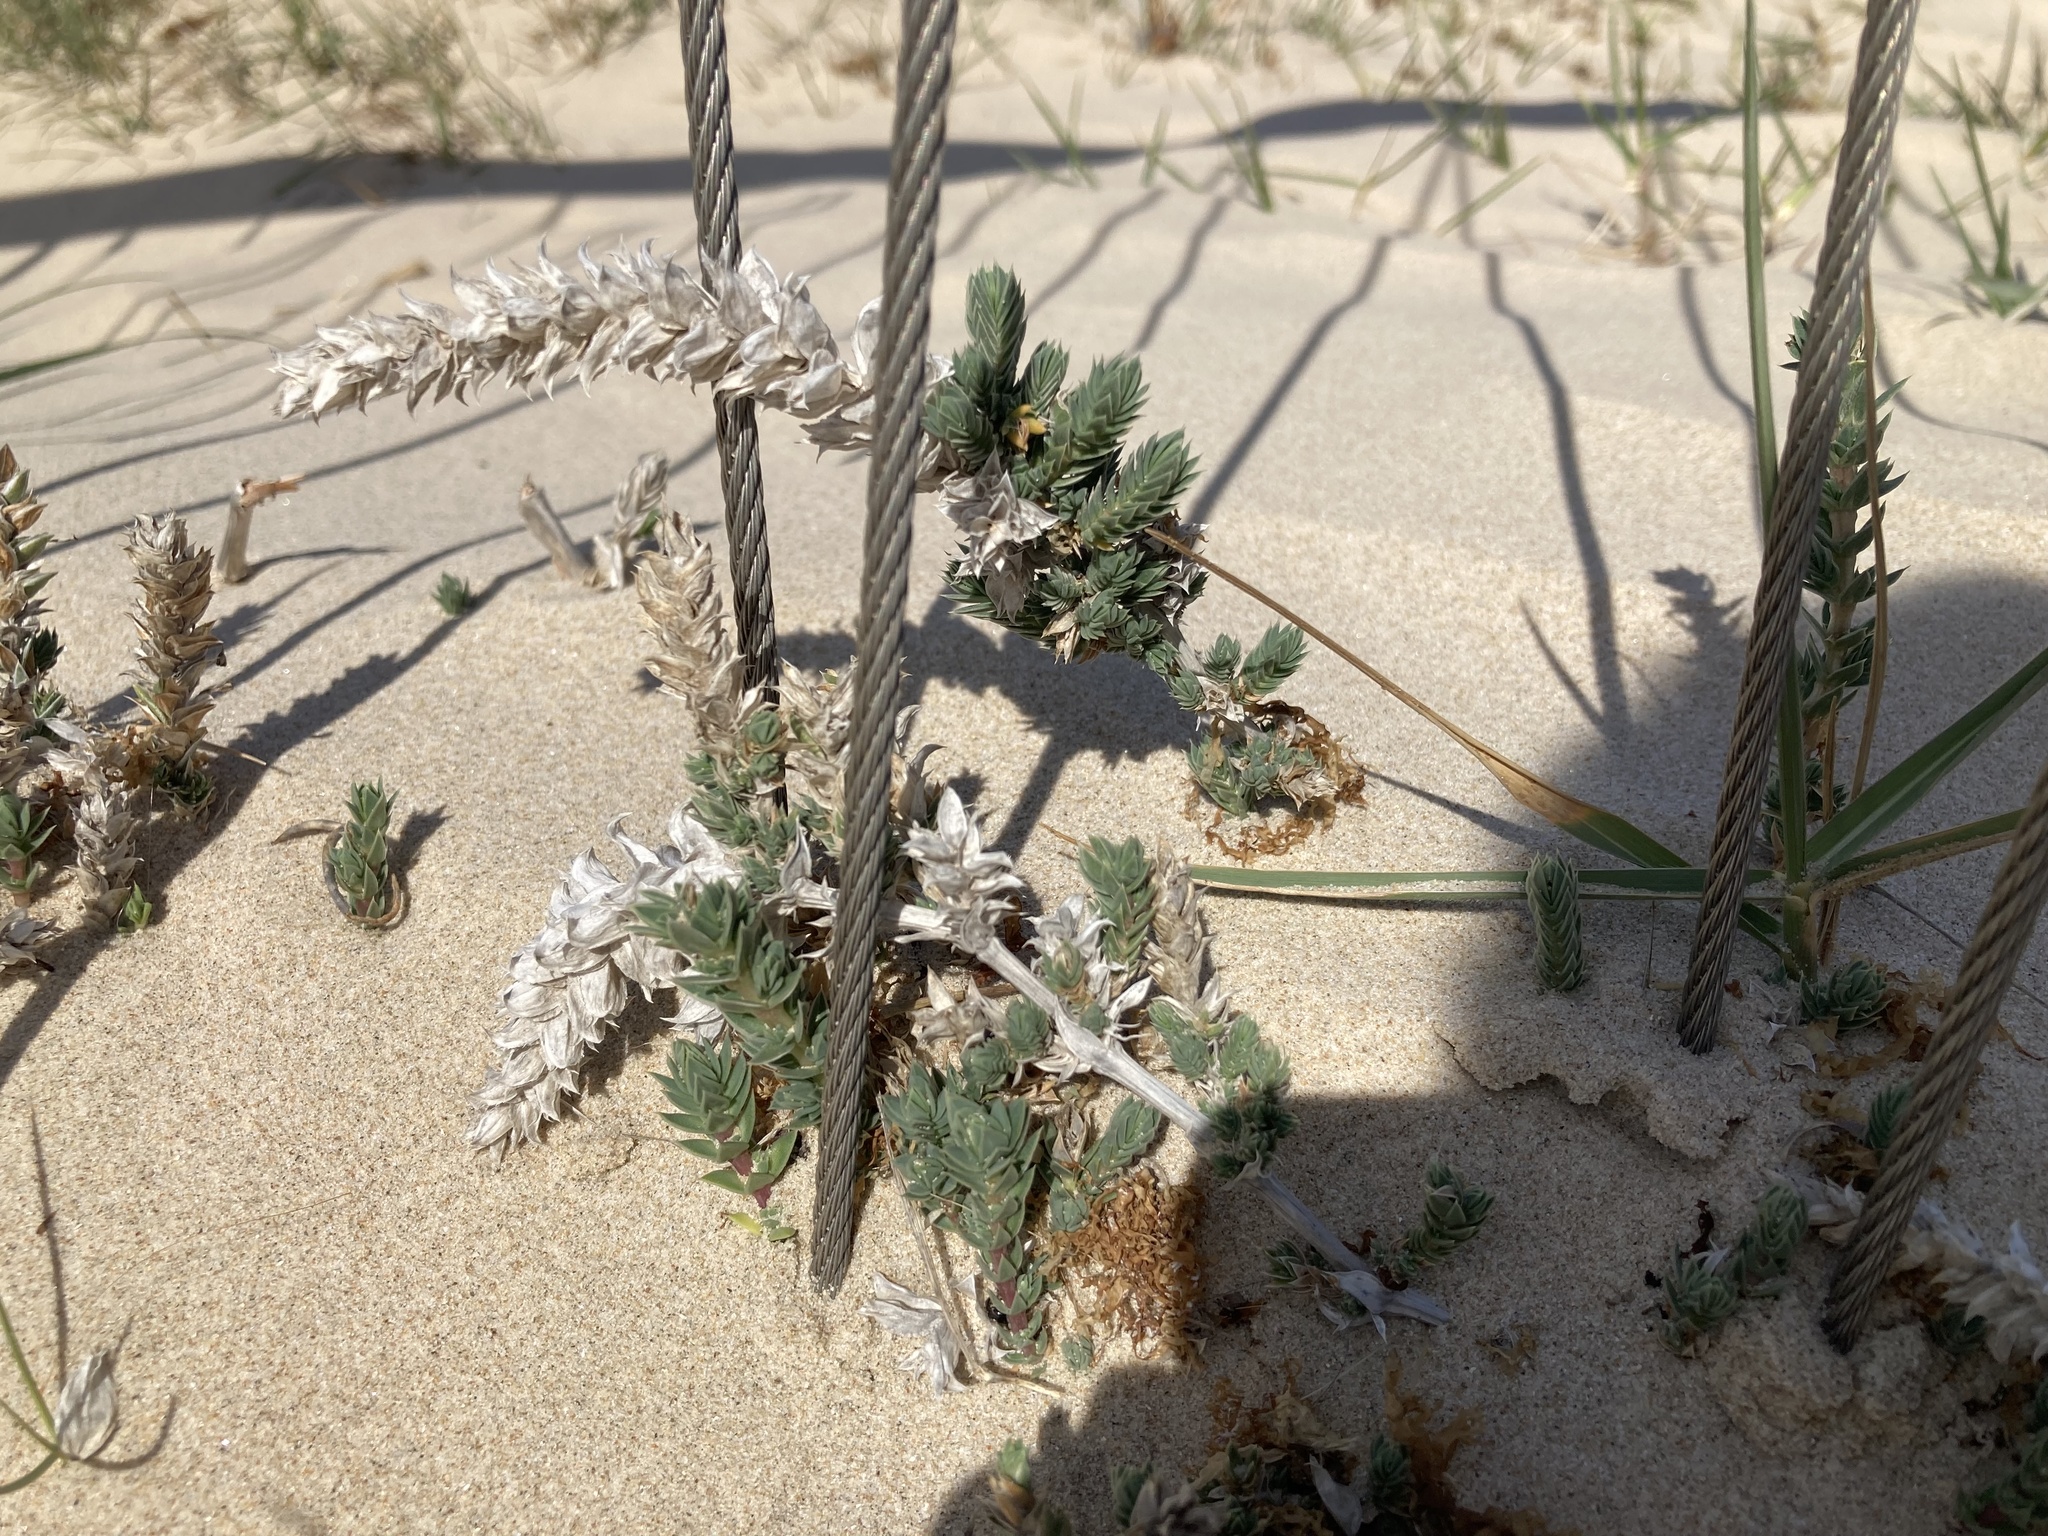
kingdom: Plantae
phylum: Tracheophyta
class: Magnoliopsida
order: Gentianales
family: Rubiaceae
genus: Crucianella
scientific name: Crucianella maritima
